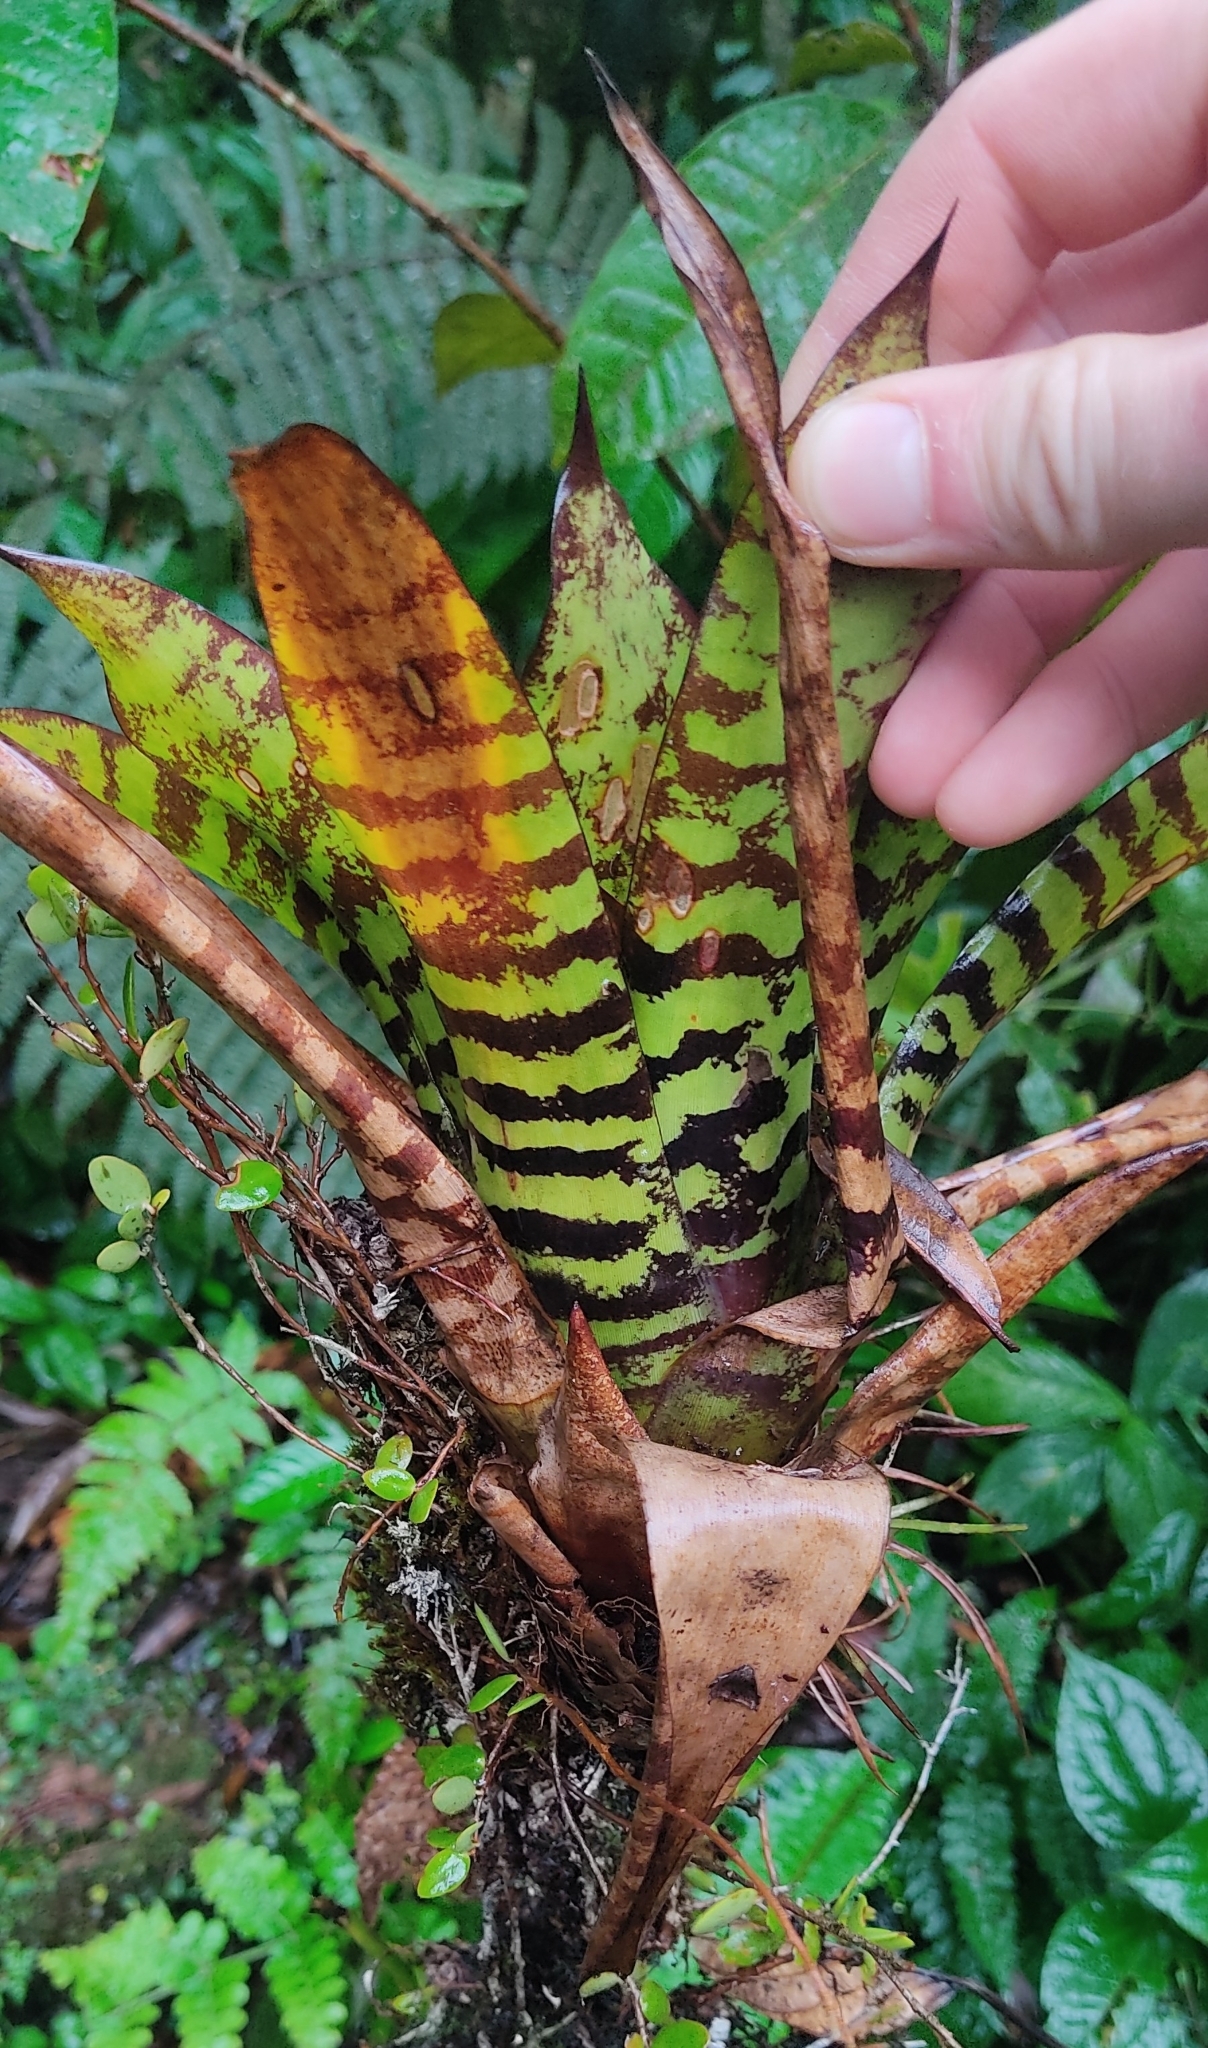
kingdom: Plantae
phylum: Tracheophyta
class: Liliopsida
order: Poales
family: Bromeliaceae
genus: Werauhia
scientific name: Werauhia vittata
